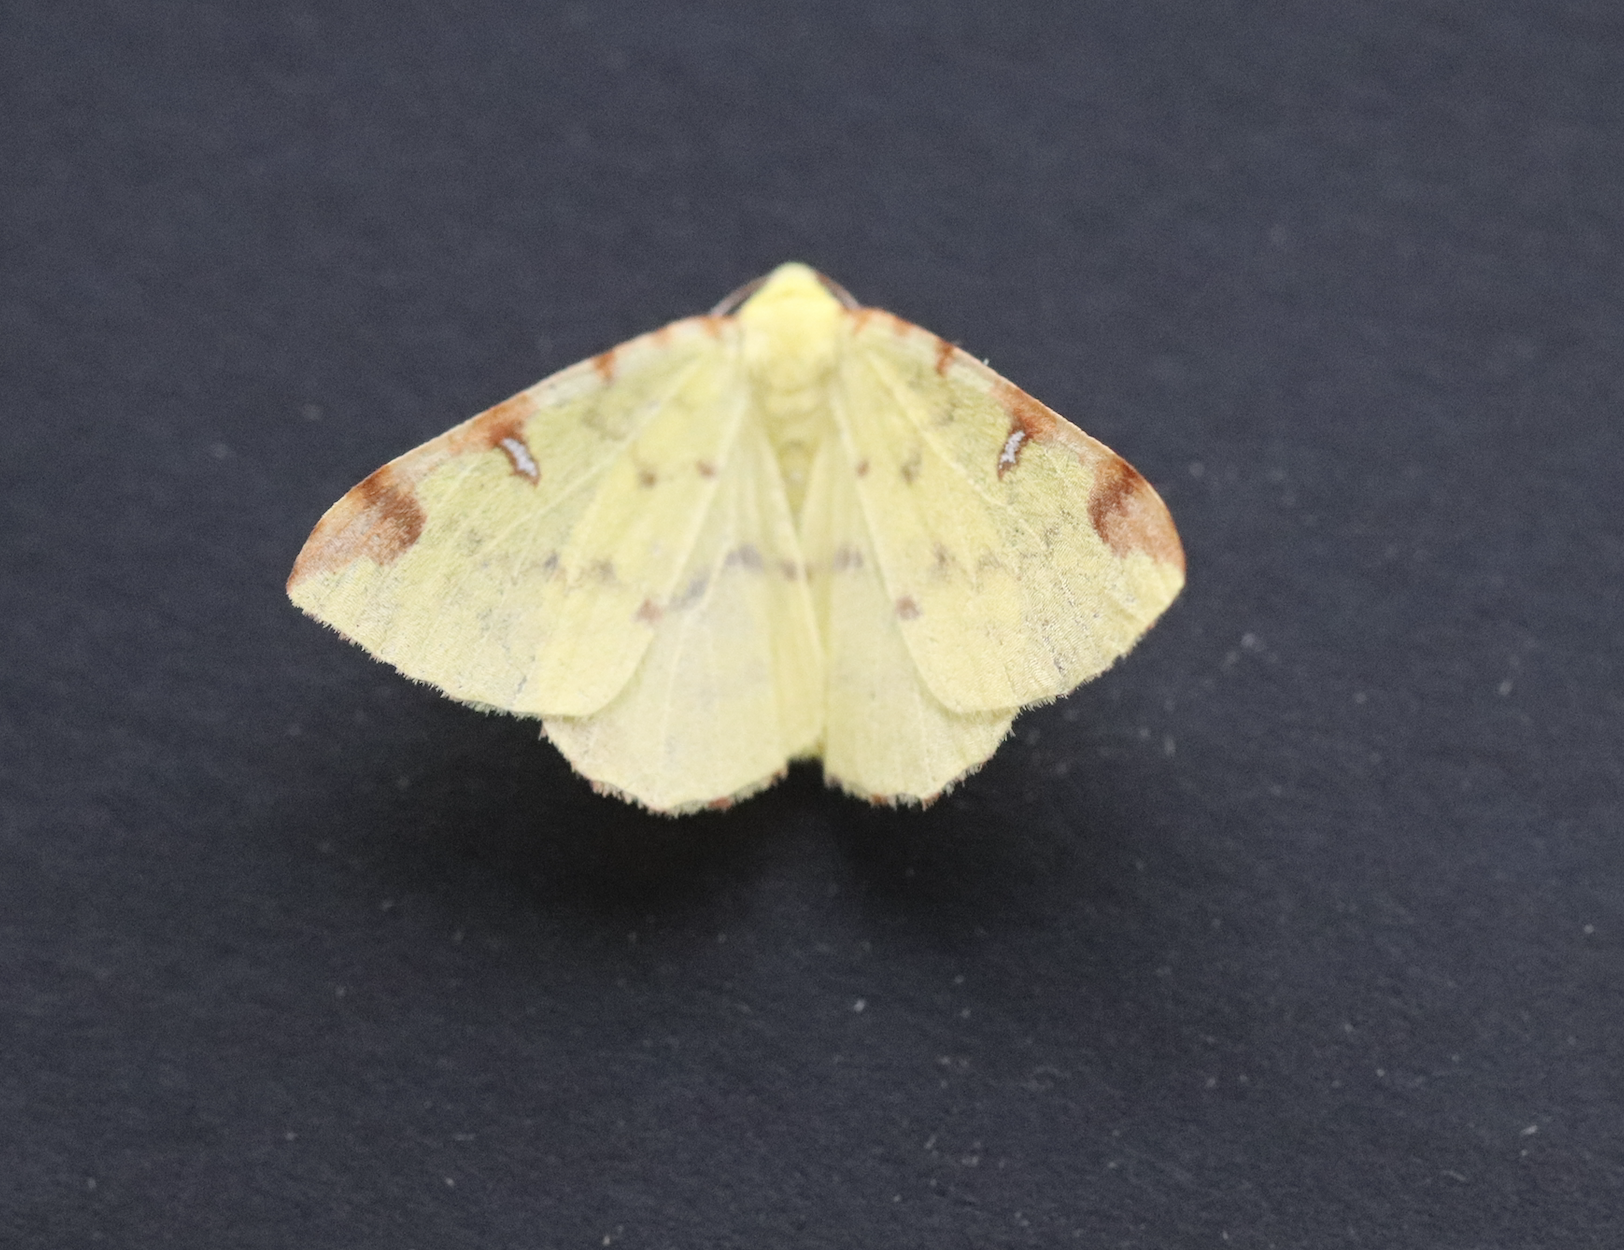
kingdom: Animalia
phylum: Arthropoda
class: Insecta
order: Lepidoptera
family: Geometridae
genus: Opisthograptis
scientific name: Opisthograptis luteolata
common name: Brimstone moth
